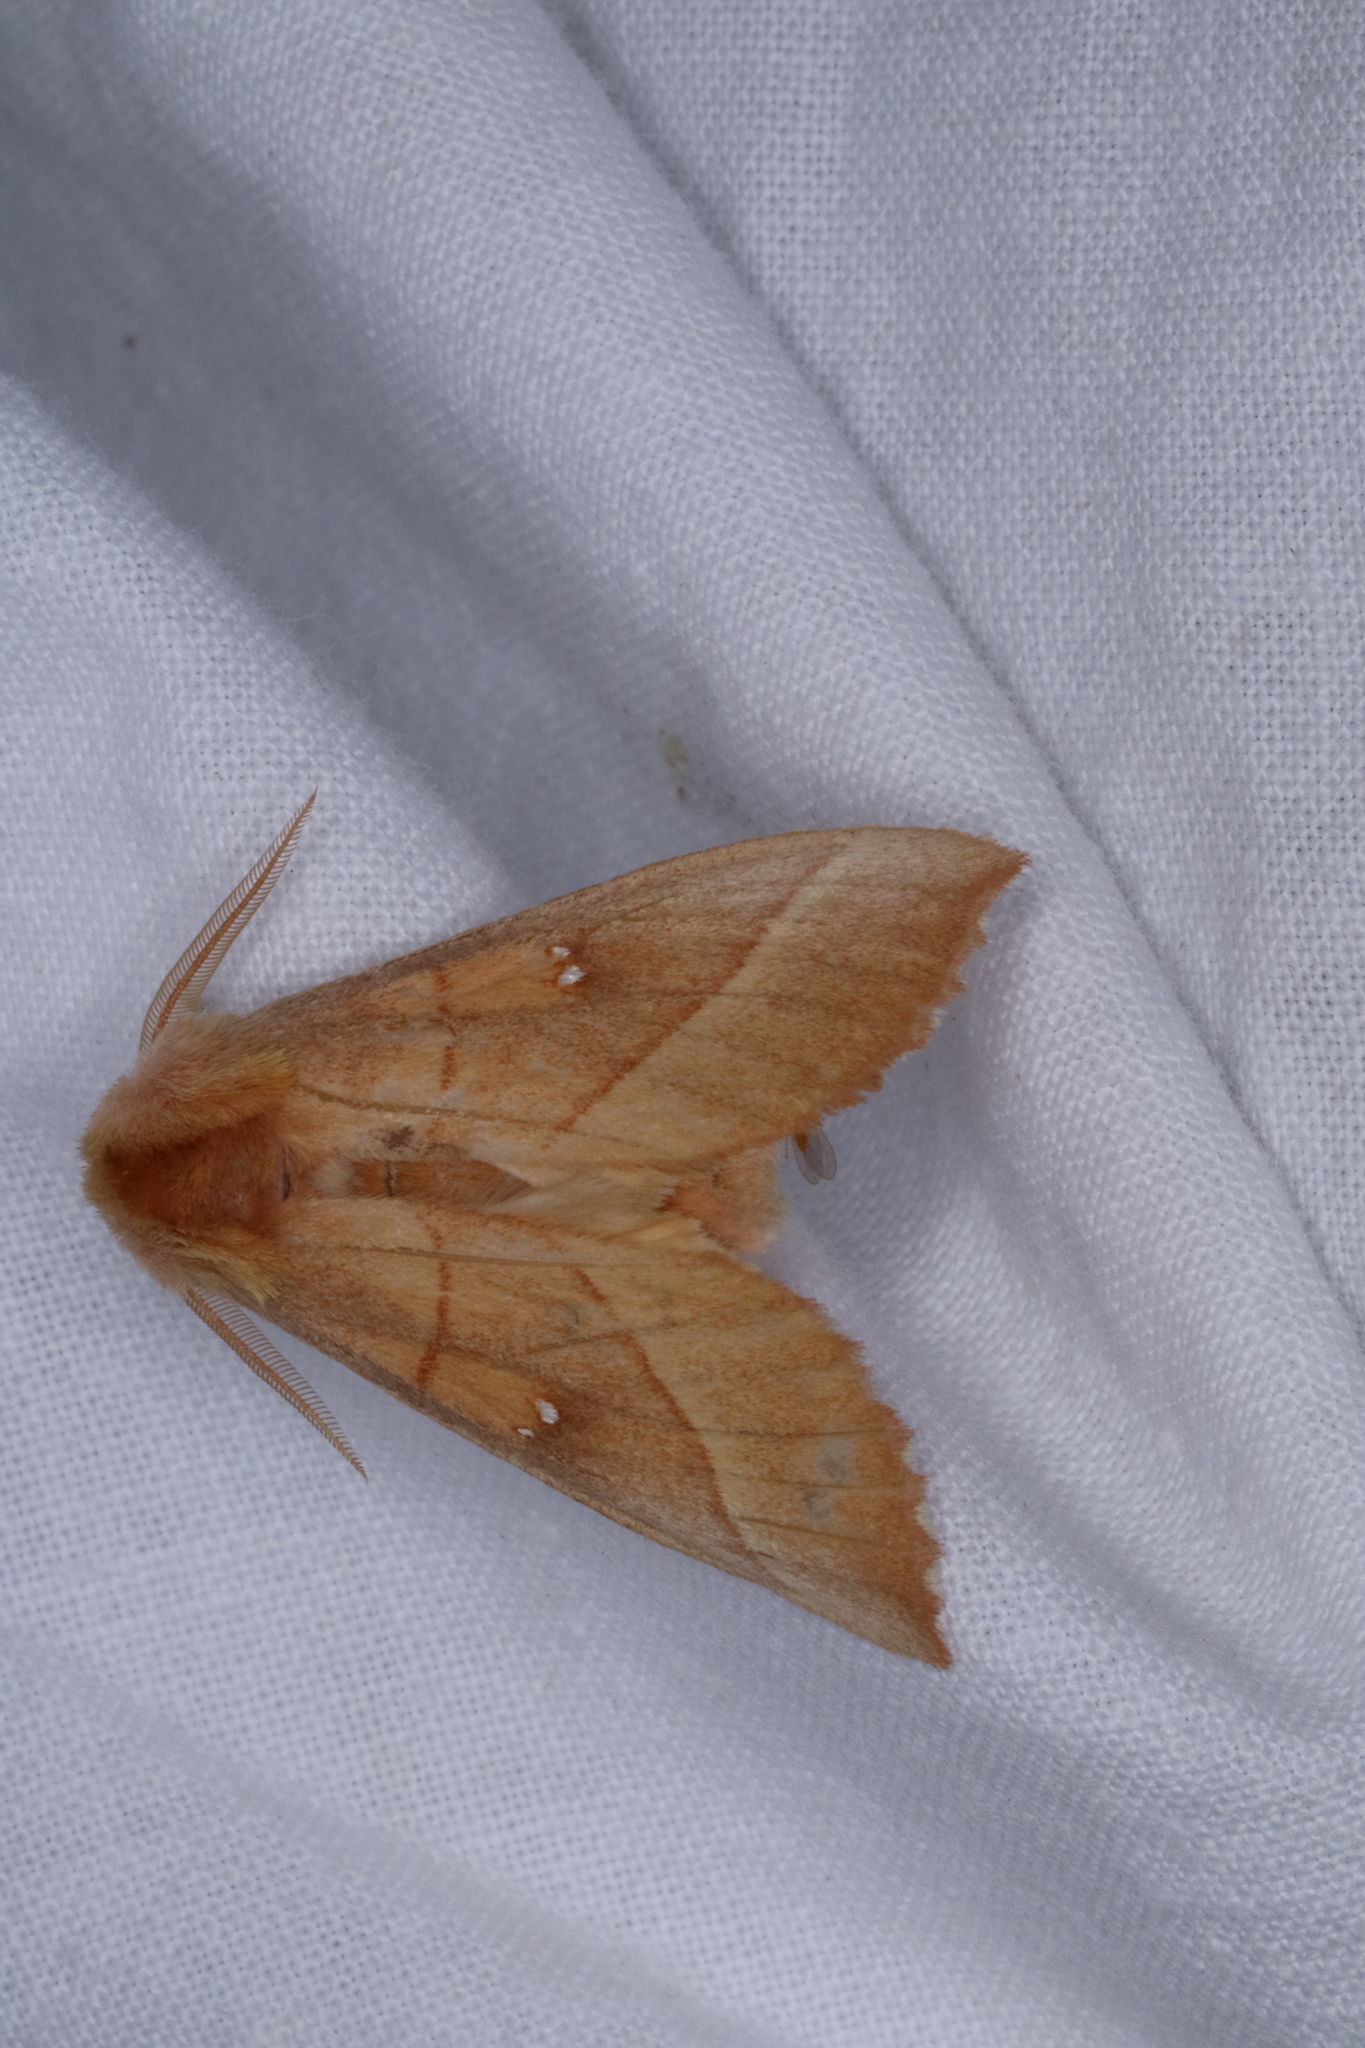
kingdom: Animalia
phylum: Arthropoda
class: Insecta
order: Lepidoptera
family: Notodontidae
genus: Nadata
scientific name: Nadata gibbosa
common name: White-dotted prominent
